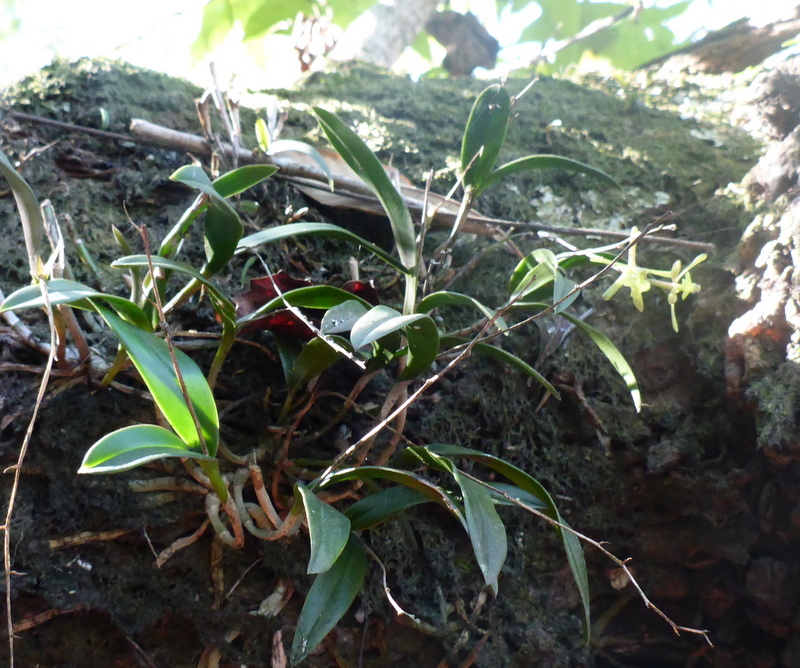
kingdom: Plantae
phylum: Tracheophyta
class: Liliopsida
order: Asparagales
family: Orchidaceae
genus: Epidendrum
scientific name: Epidendrum conopseum
